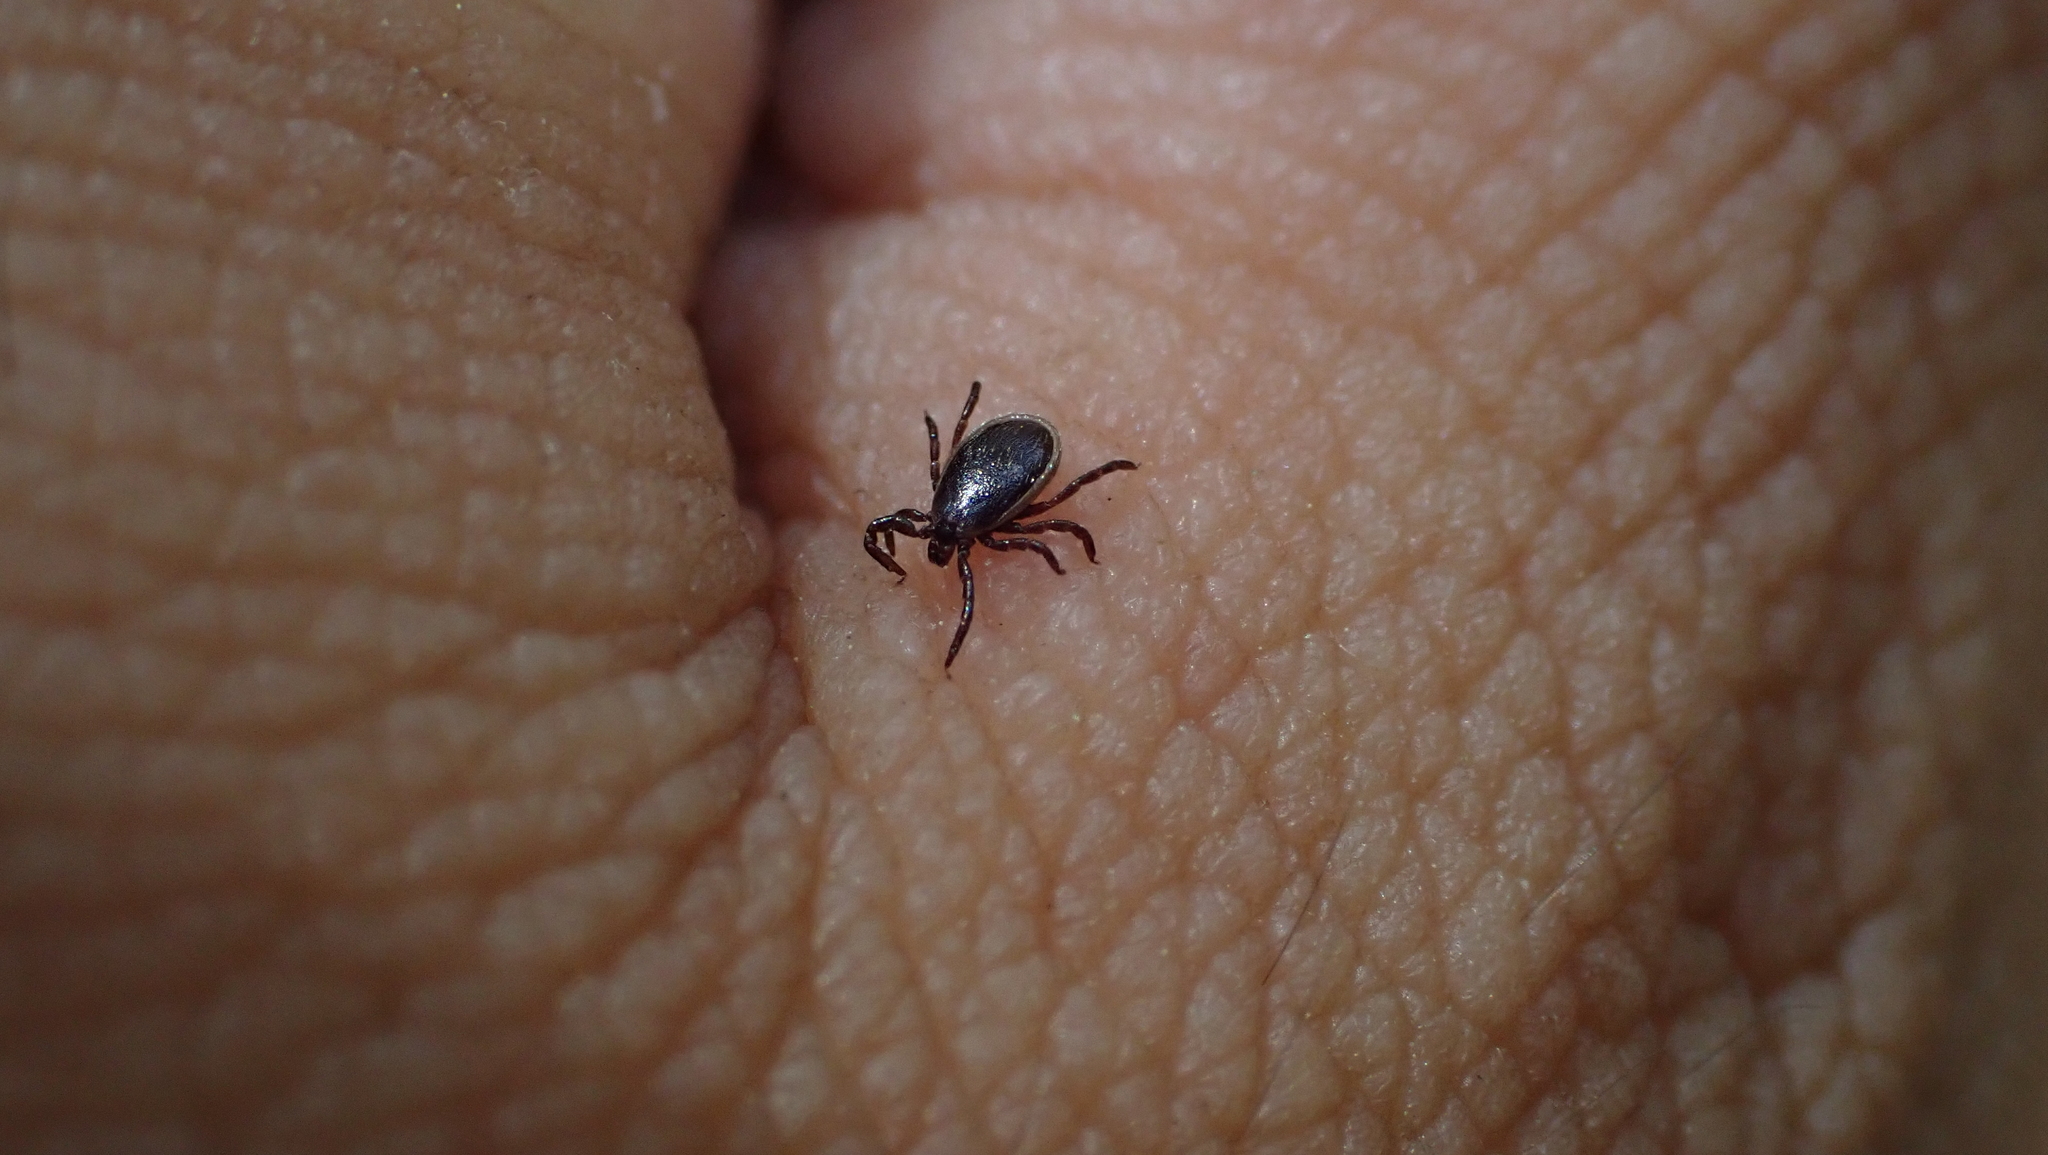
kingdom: Animalia
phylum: Arthropoda
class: Arachnida
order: Ixodida
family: Ixodidae
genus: Ixodes
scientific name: Ixodes scapularis
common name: Black legged tick
